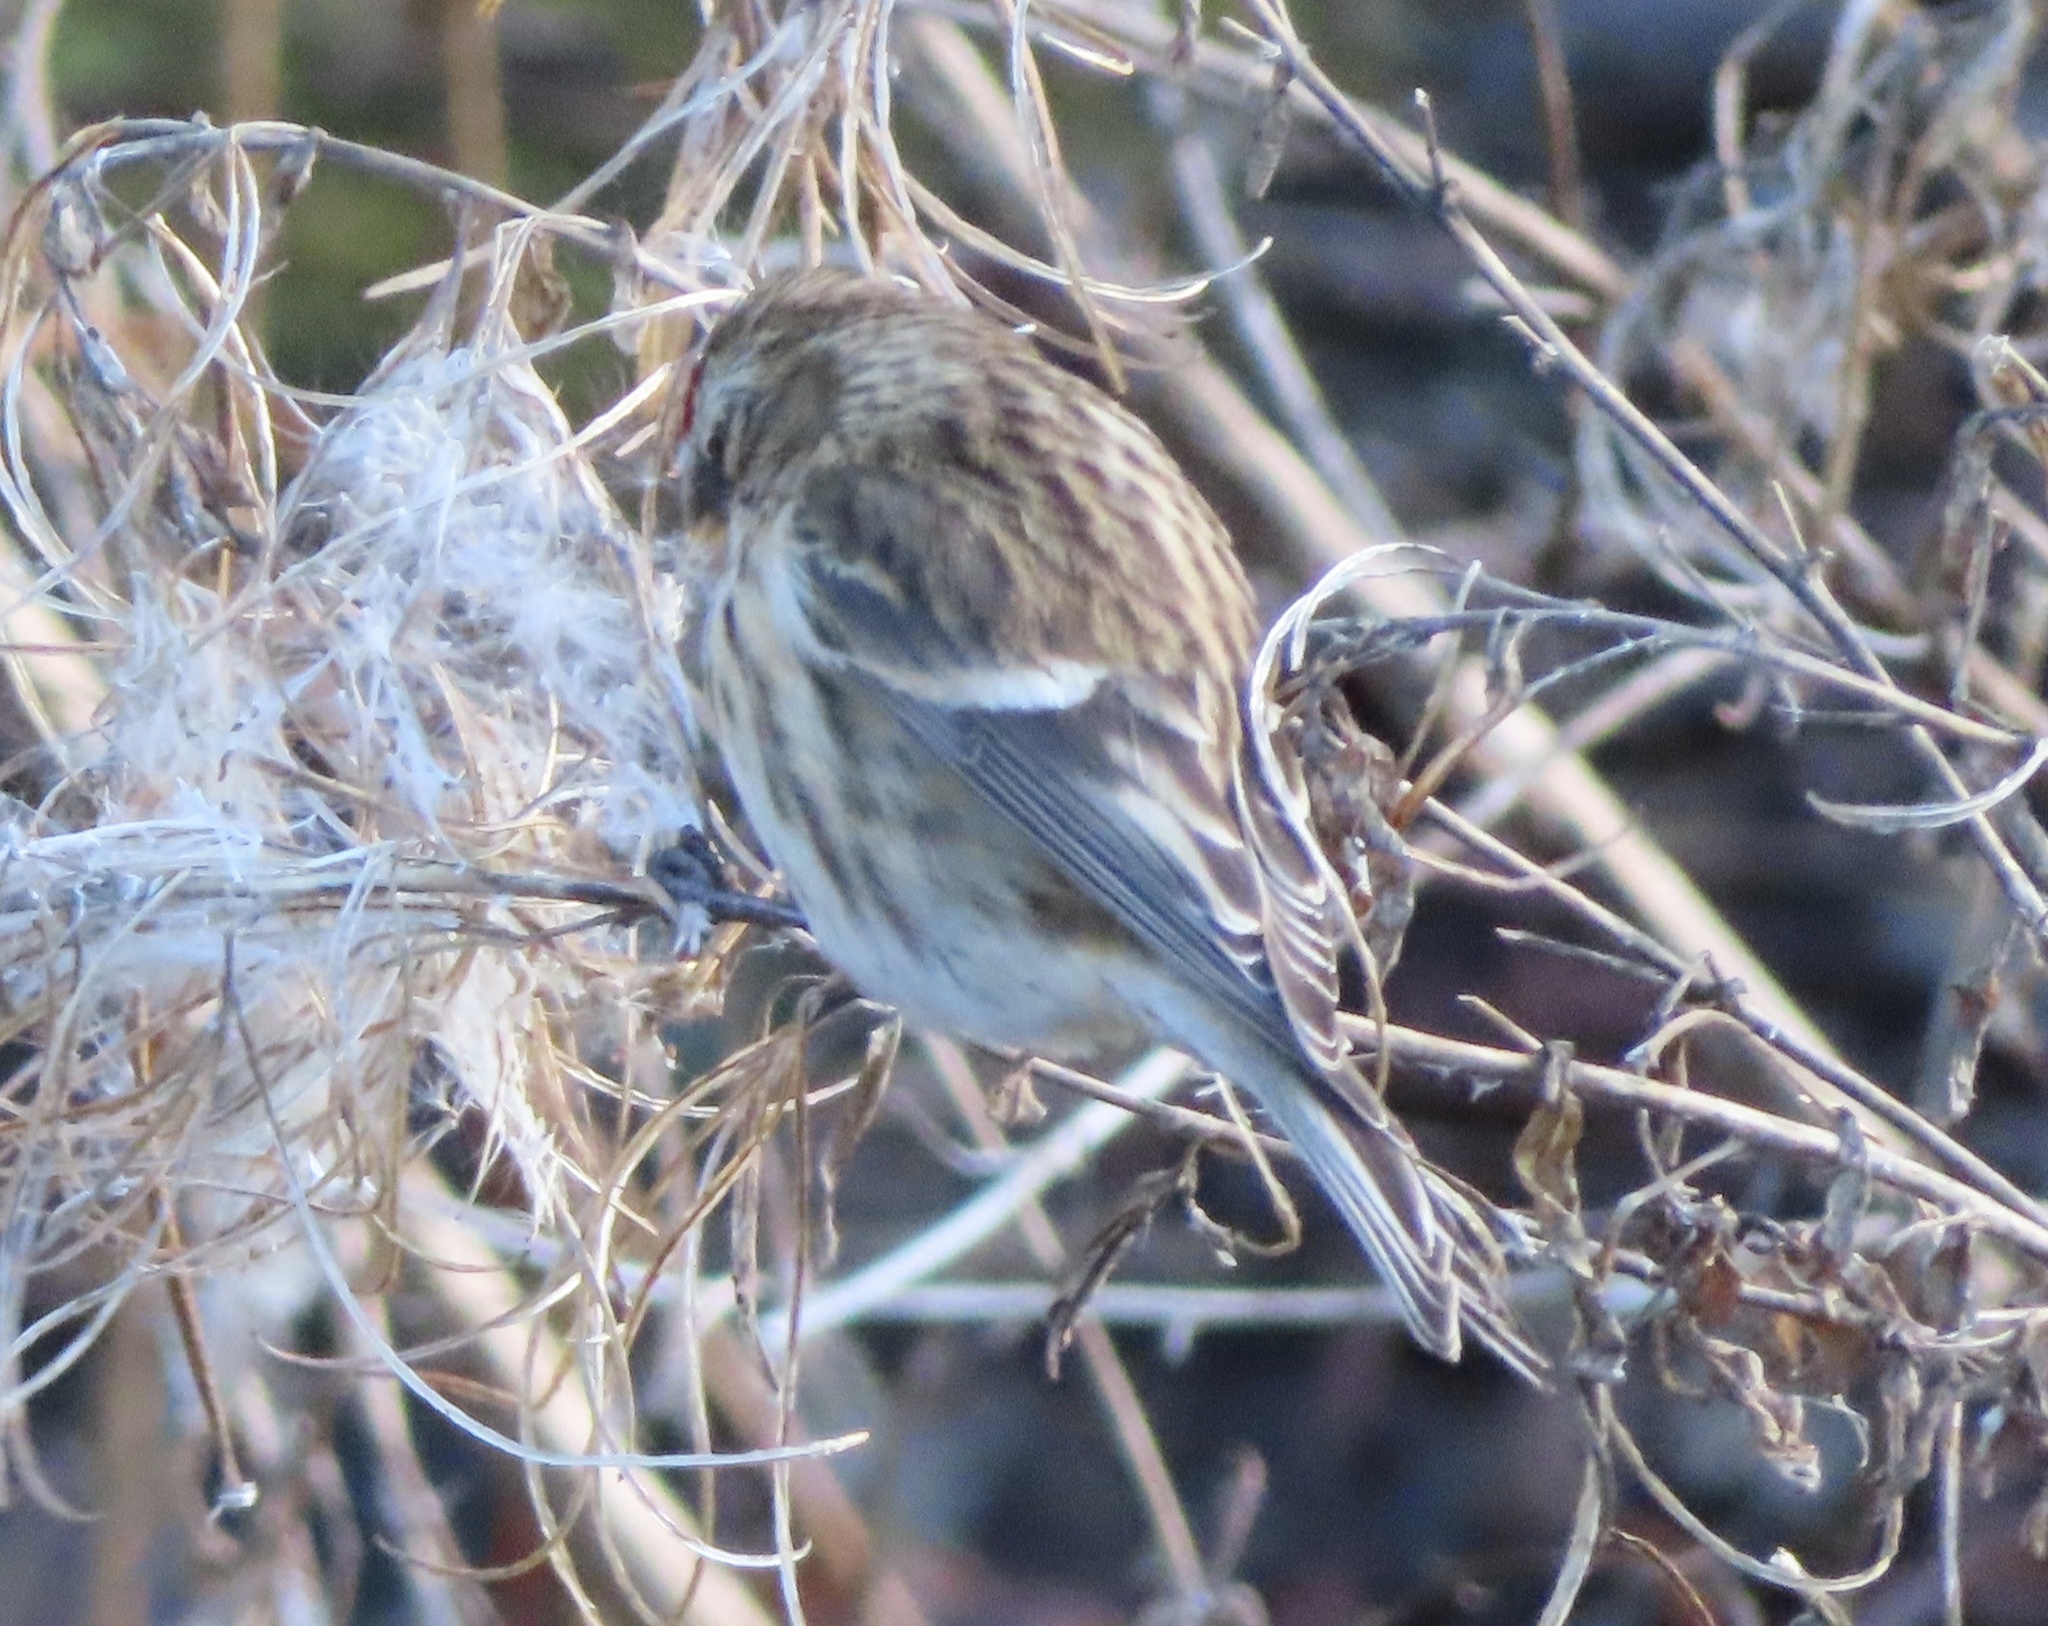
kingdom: Animalia
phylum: Chordata
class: Aves
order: Passeriformes
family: Fringillidae
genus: Acanthis
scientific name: Acanthis flammea
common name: Common redpoll
